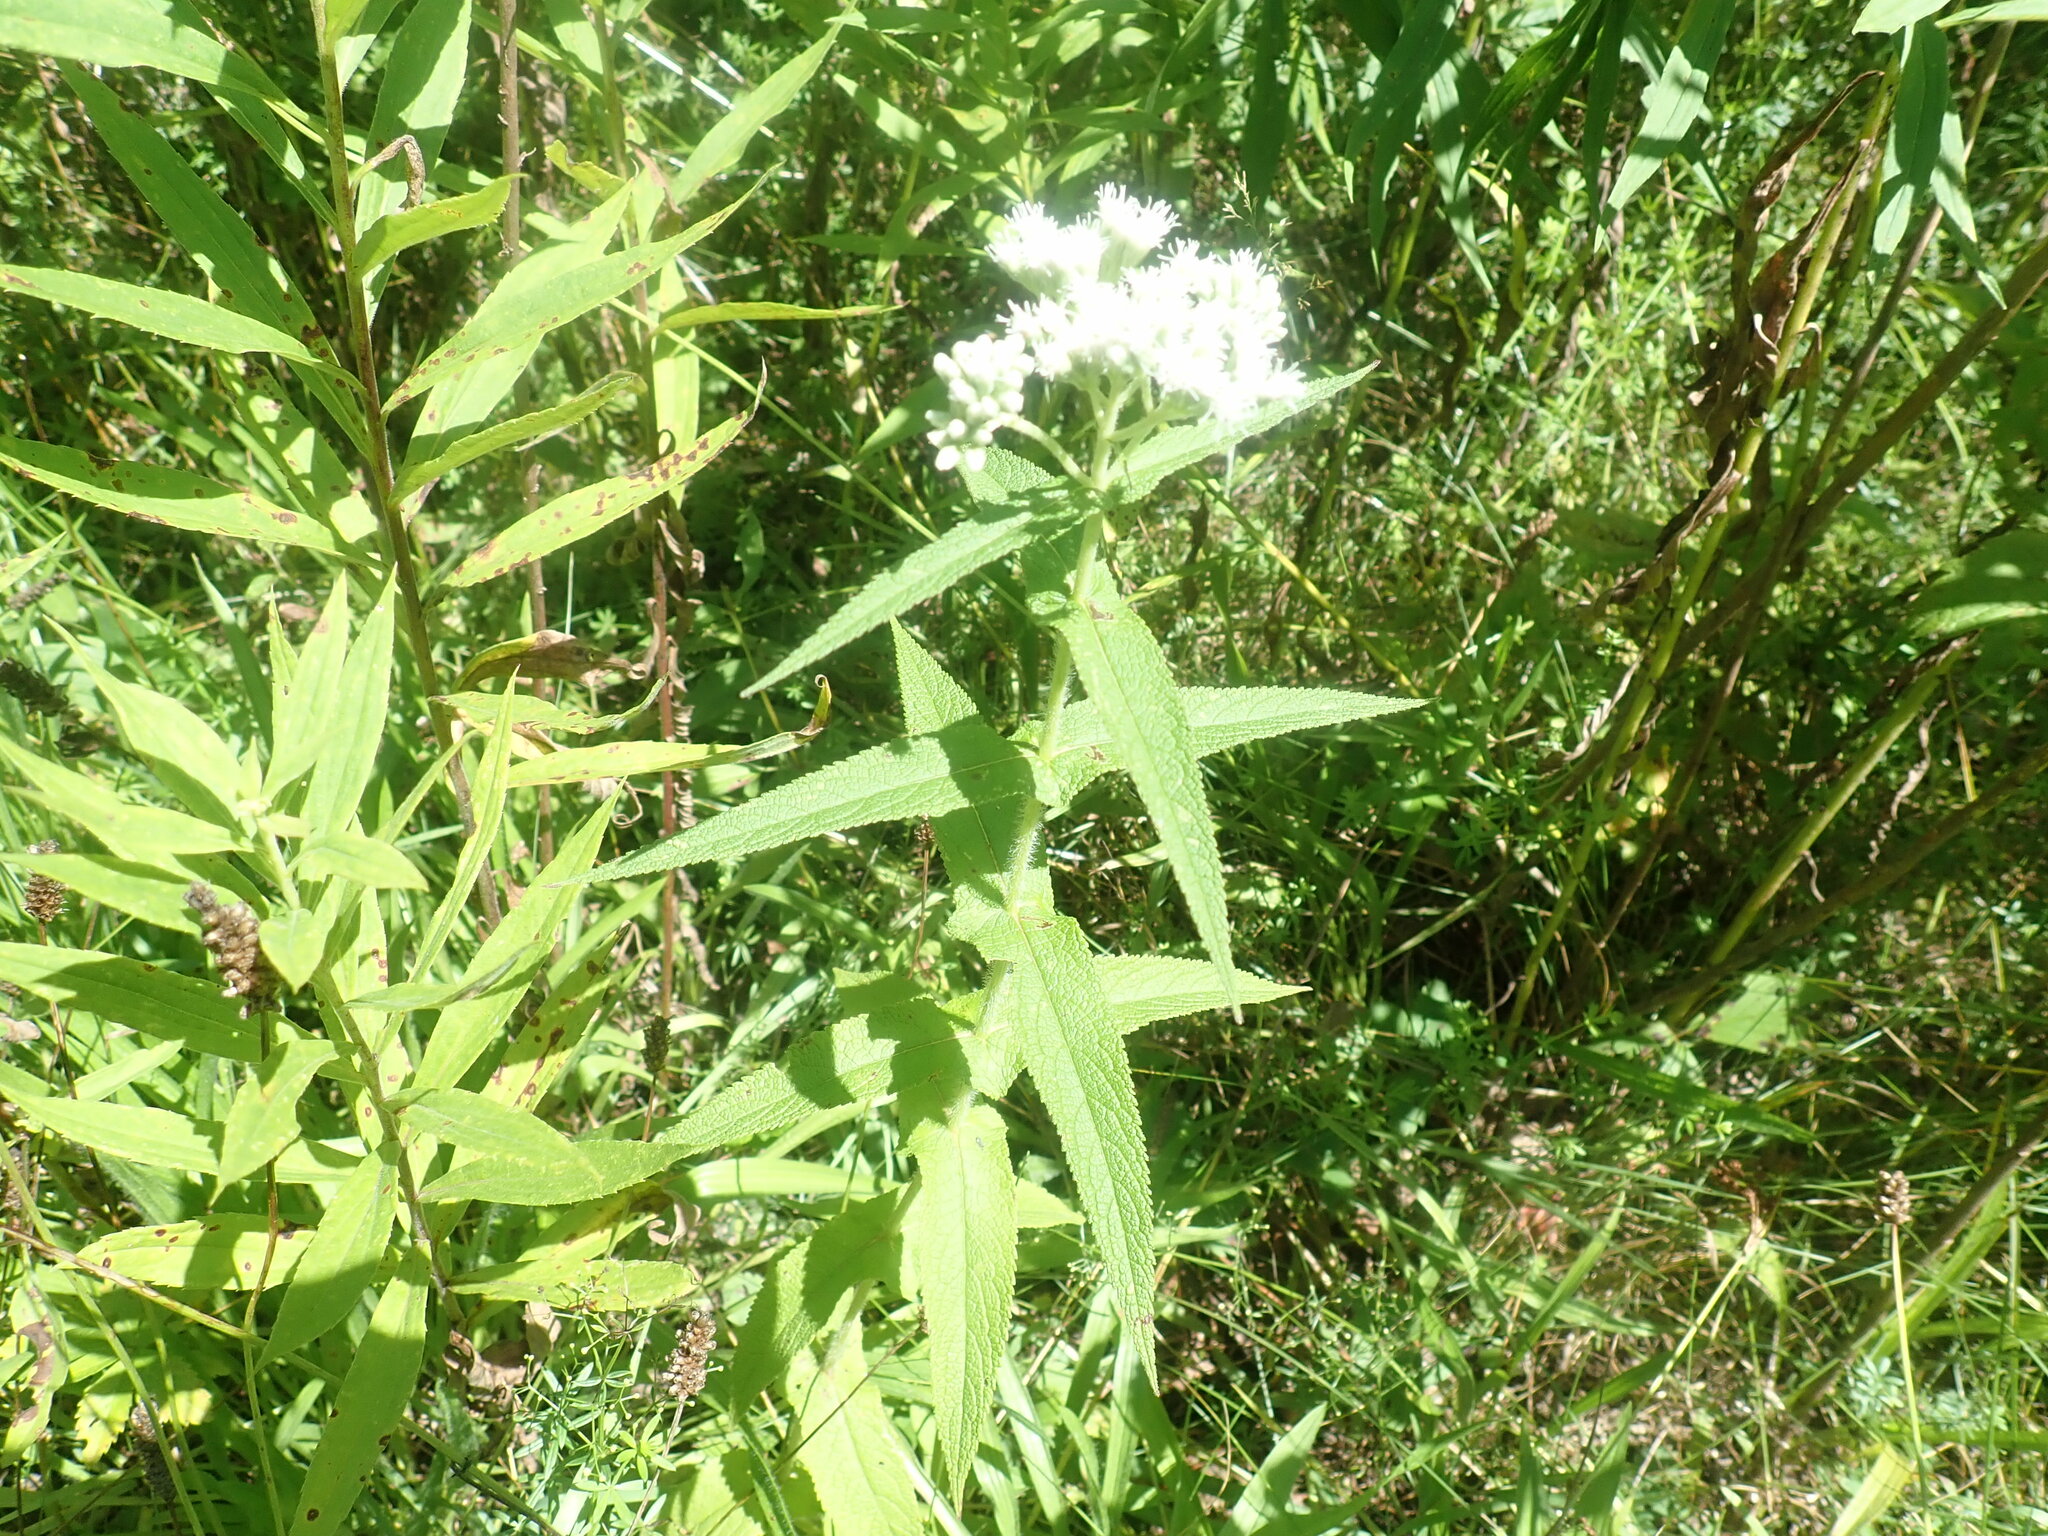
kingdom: Plantae
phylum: Tracheophyta
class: Magnoliopsida
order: Asterales
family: Asteraceae
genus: Eupatorium
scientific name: Eupatorium perfoliatum
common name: Boneset
